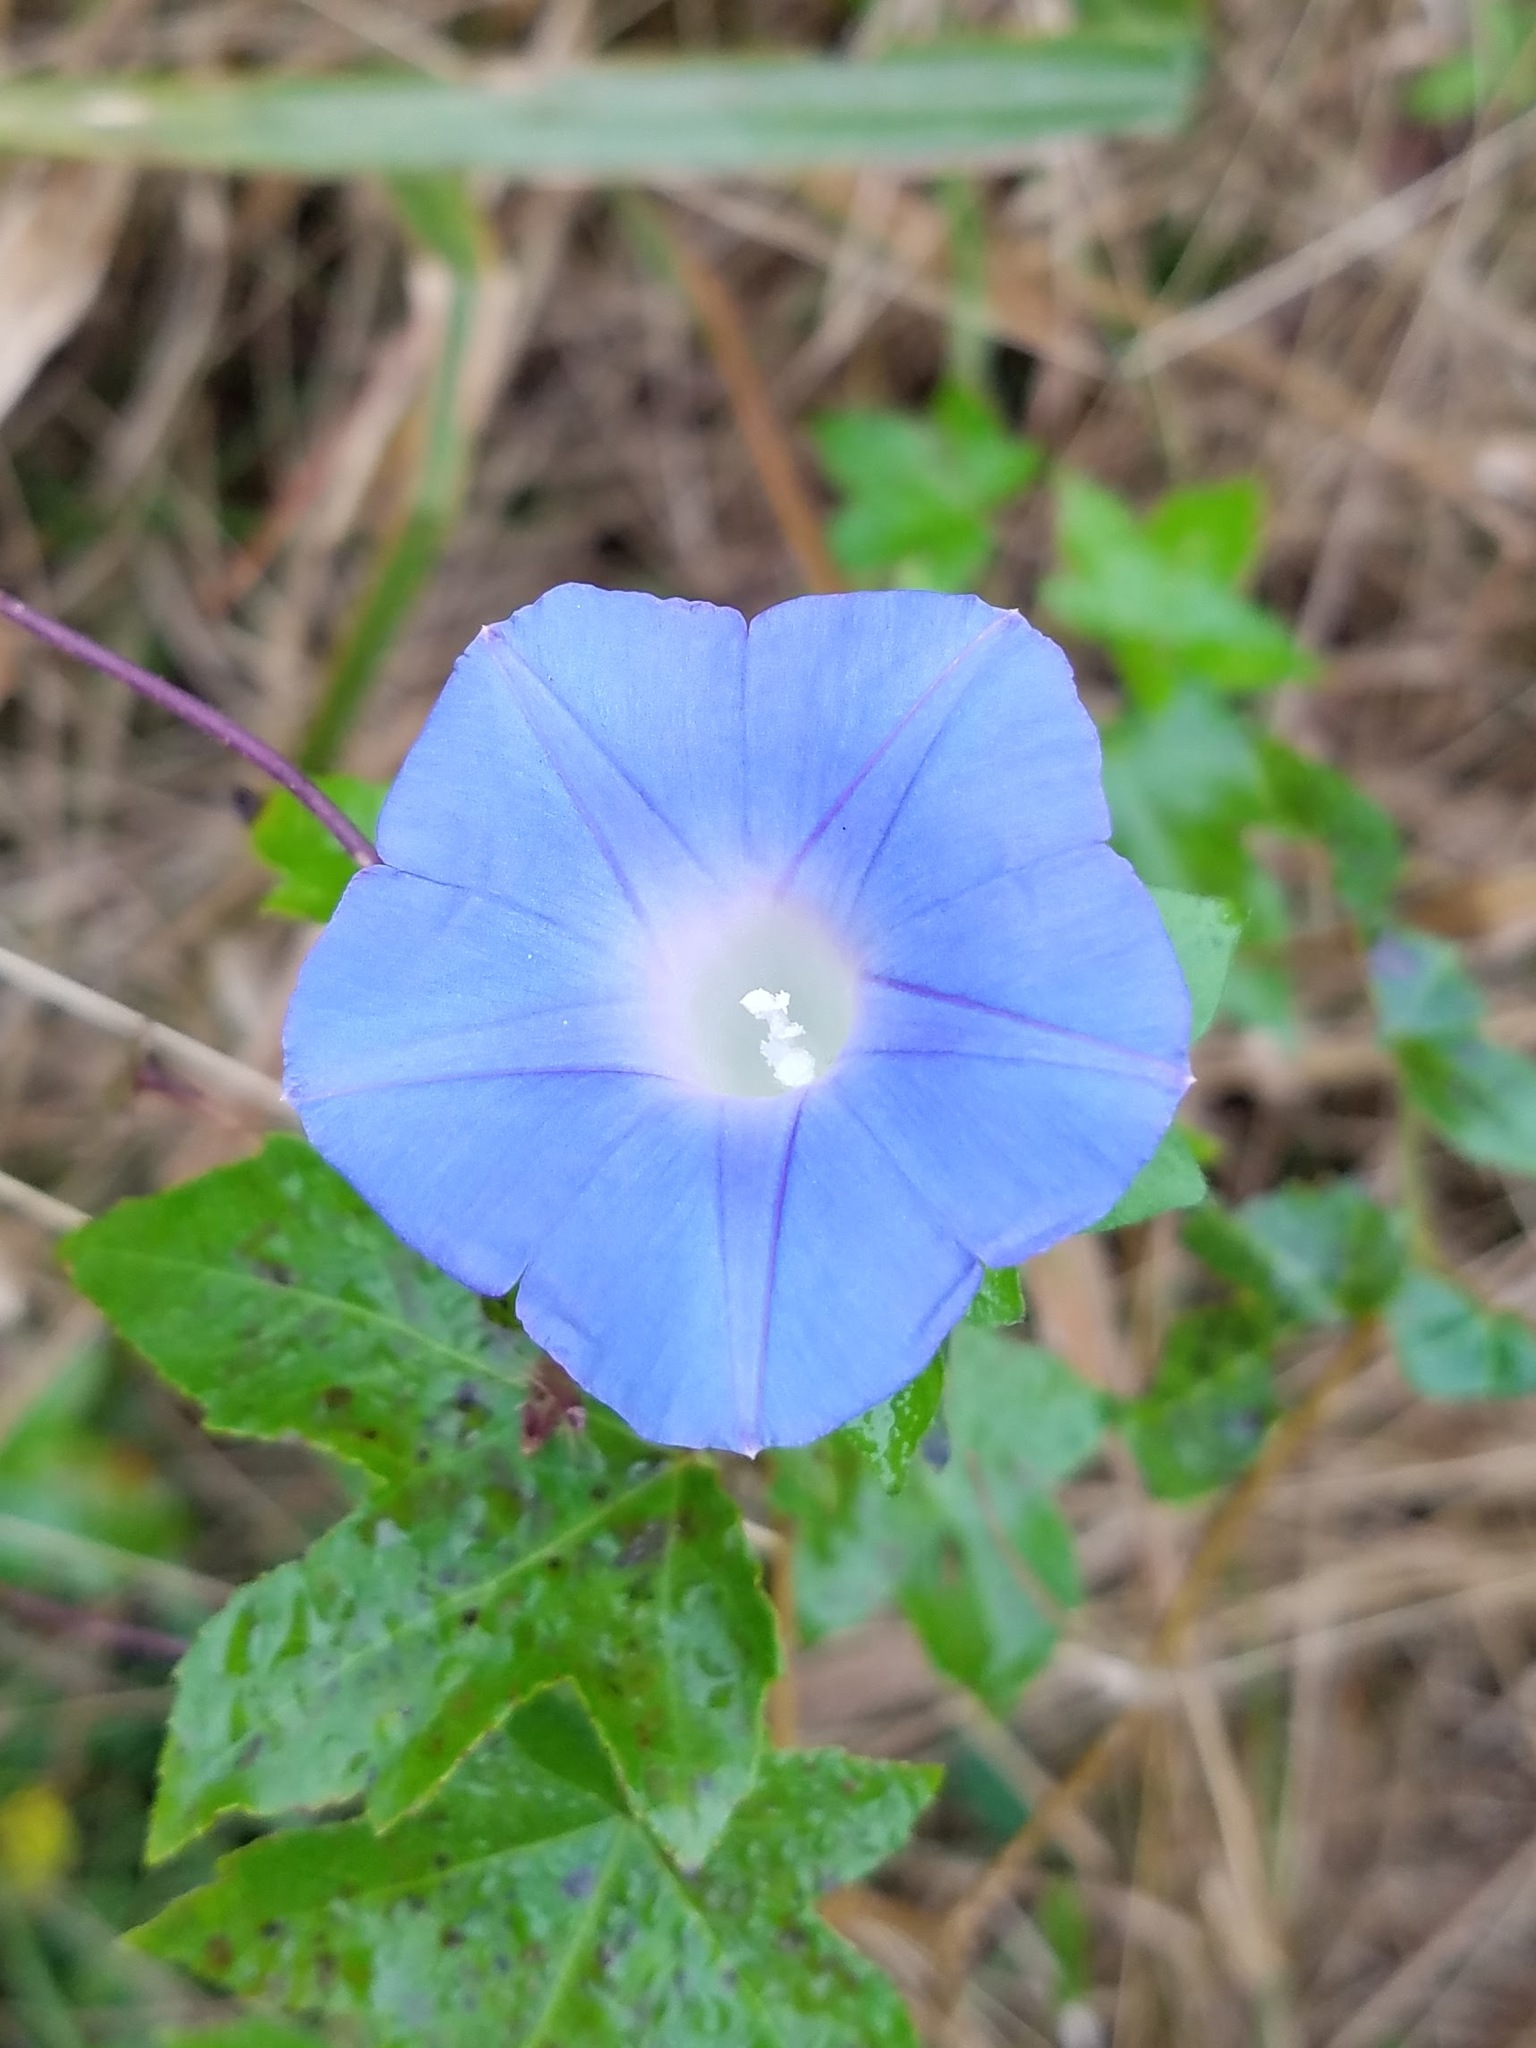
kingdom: Plantae
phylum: Tracheophyta
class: Magnoliopsida
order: Solanales
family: Convolvulaceae
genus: Ipomoea
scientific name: Ipomoea hederacea
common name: Ivy-leaved morning-glory
